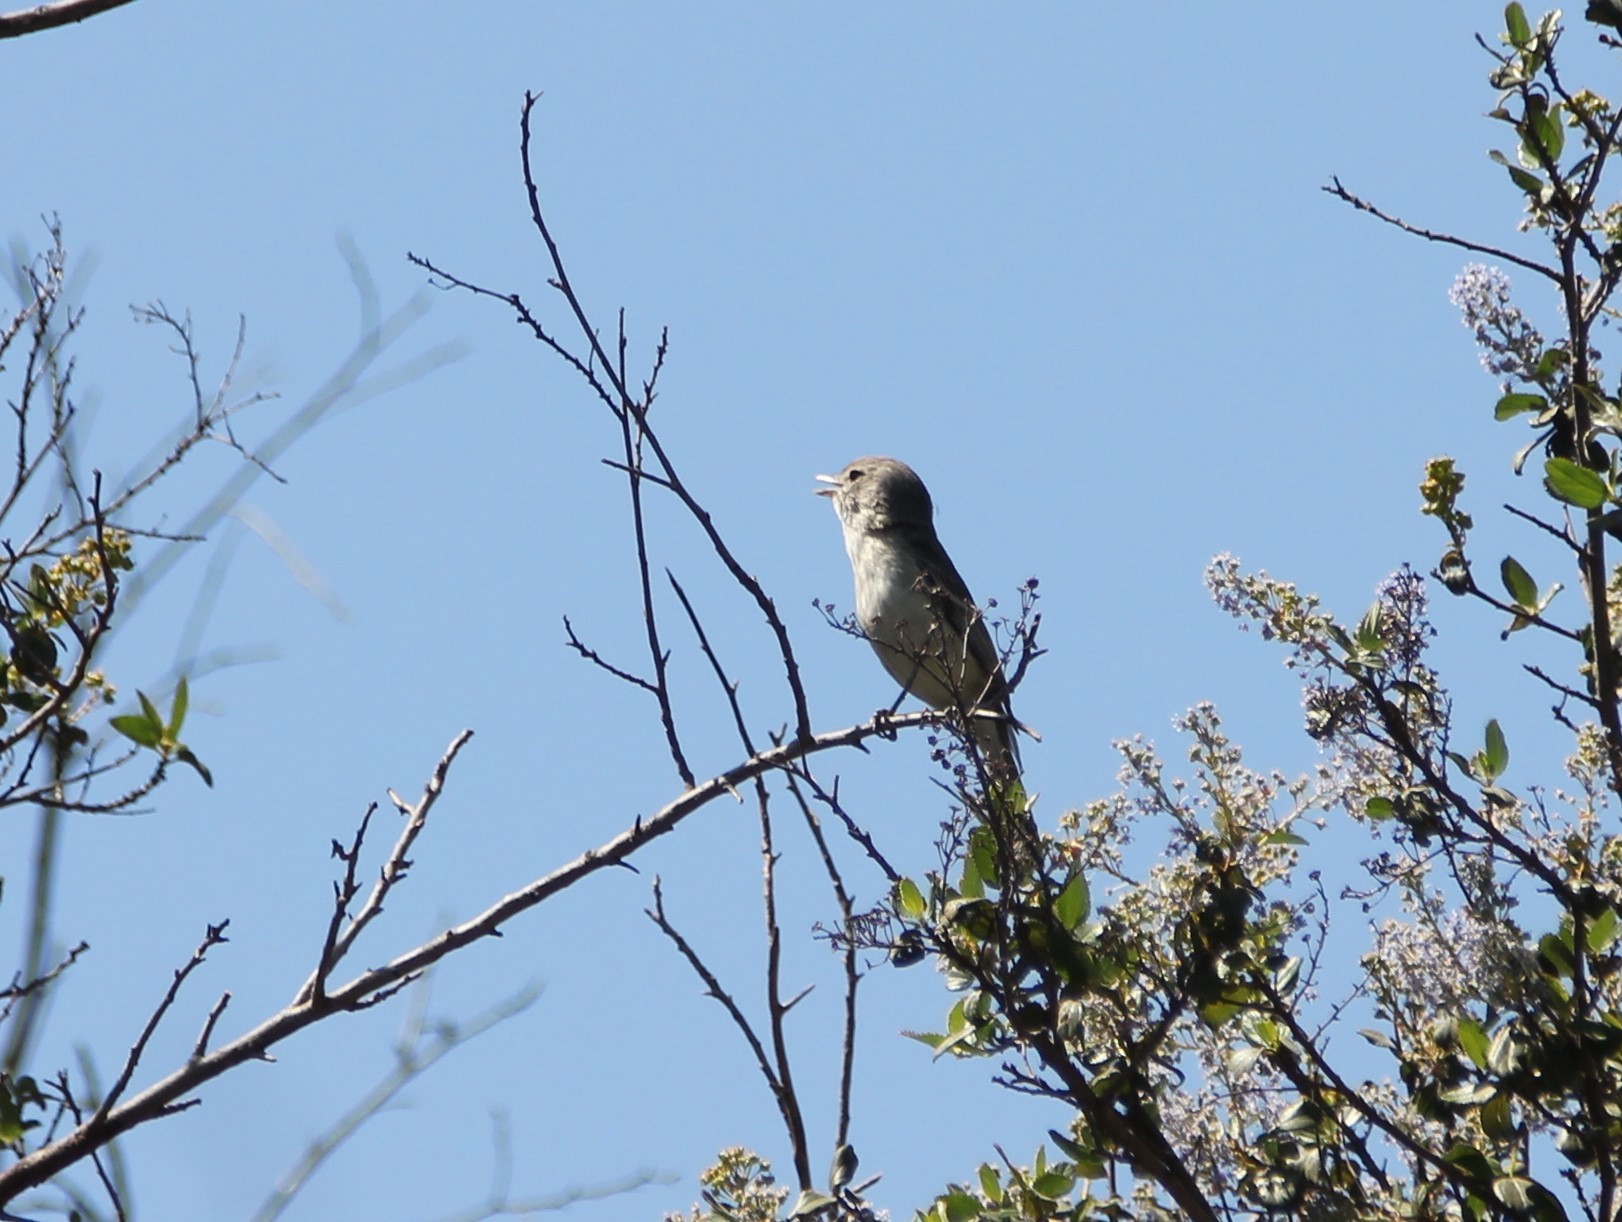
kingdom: Animalia
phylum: Chordata
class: Aves
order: Passeriformes
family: Vireonidae
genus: Vireo
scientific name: Vireo bellii
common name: Bell's vireo
